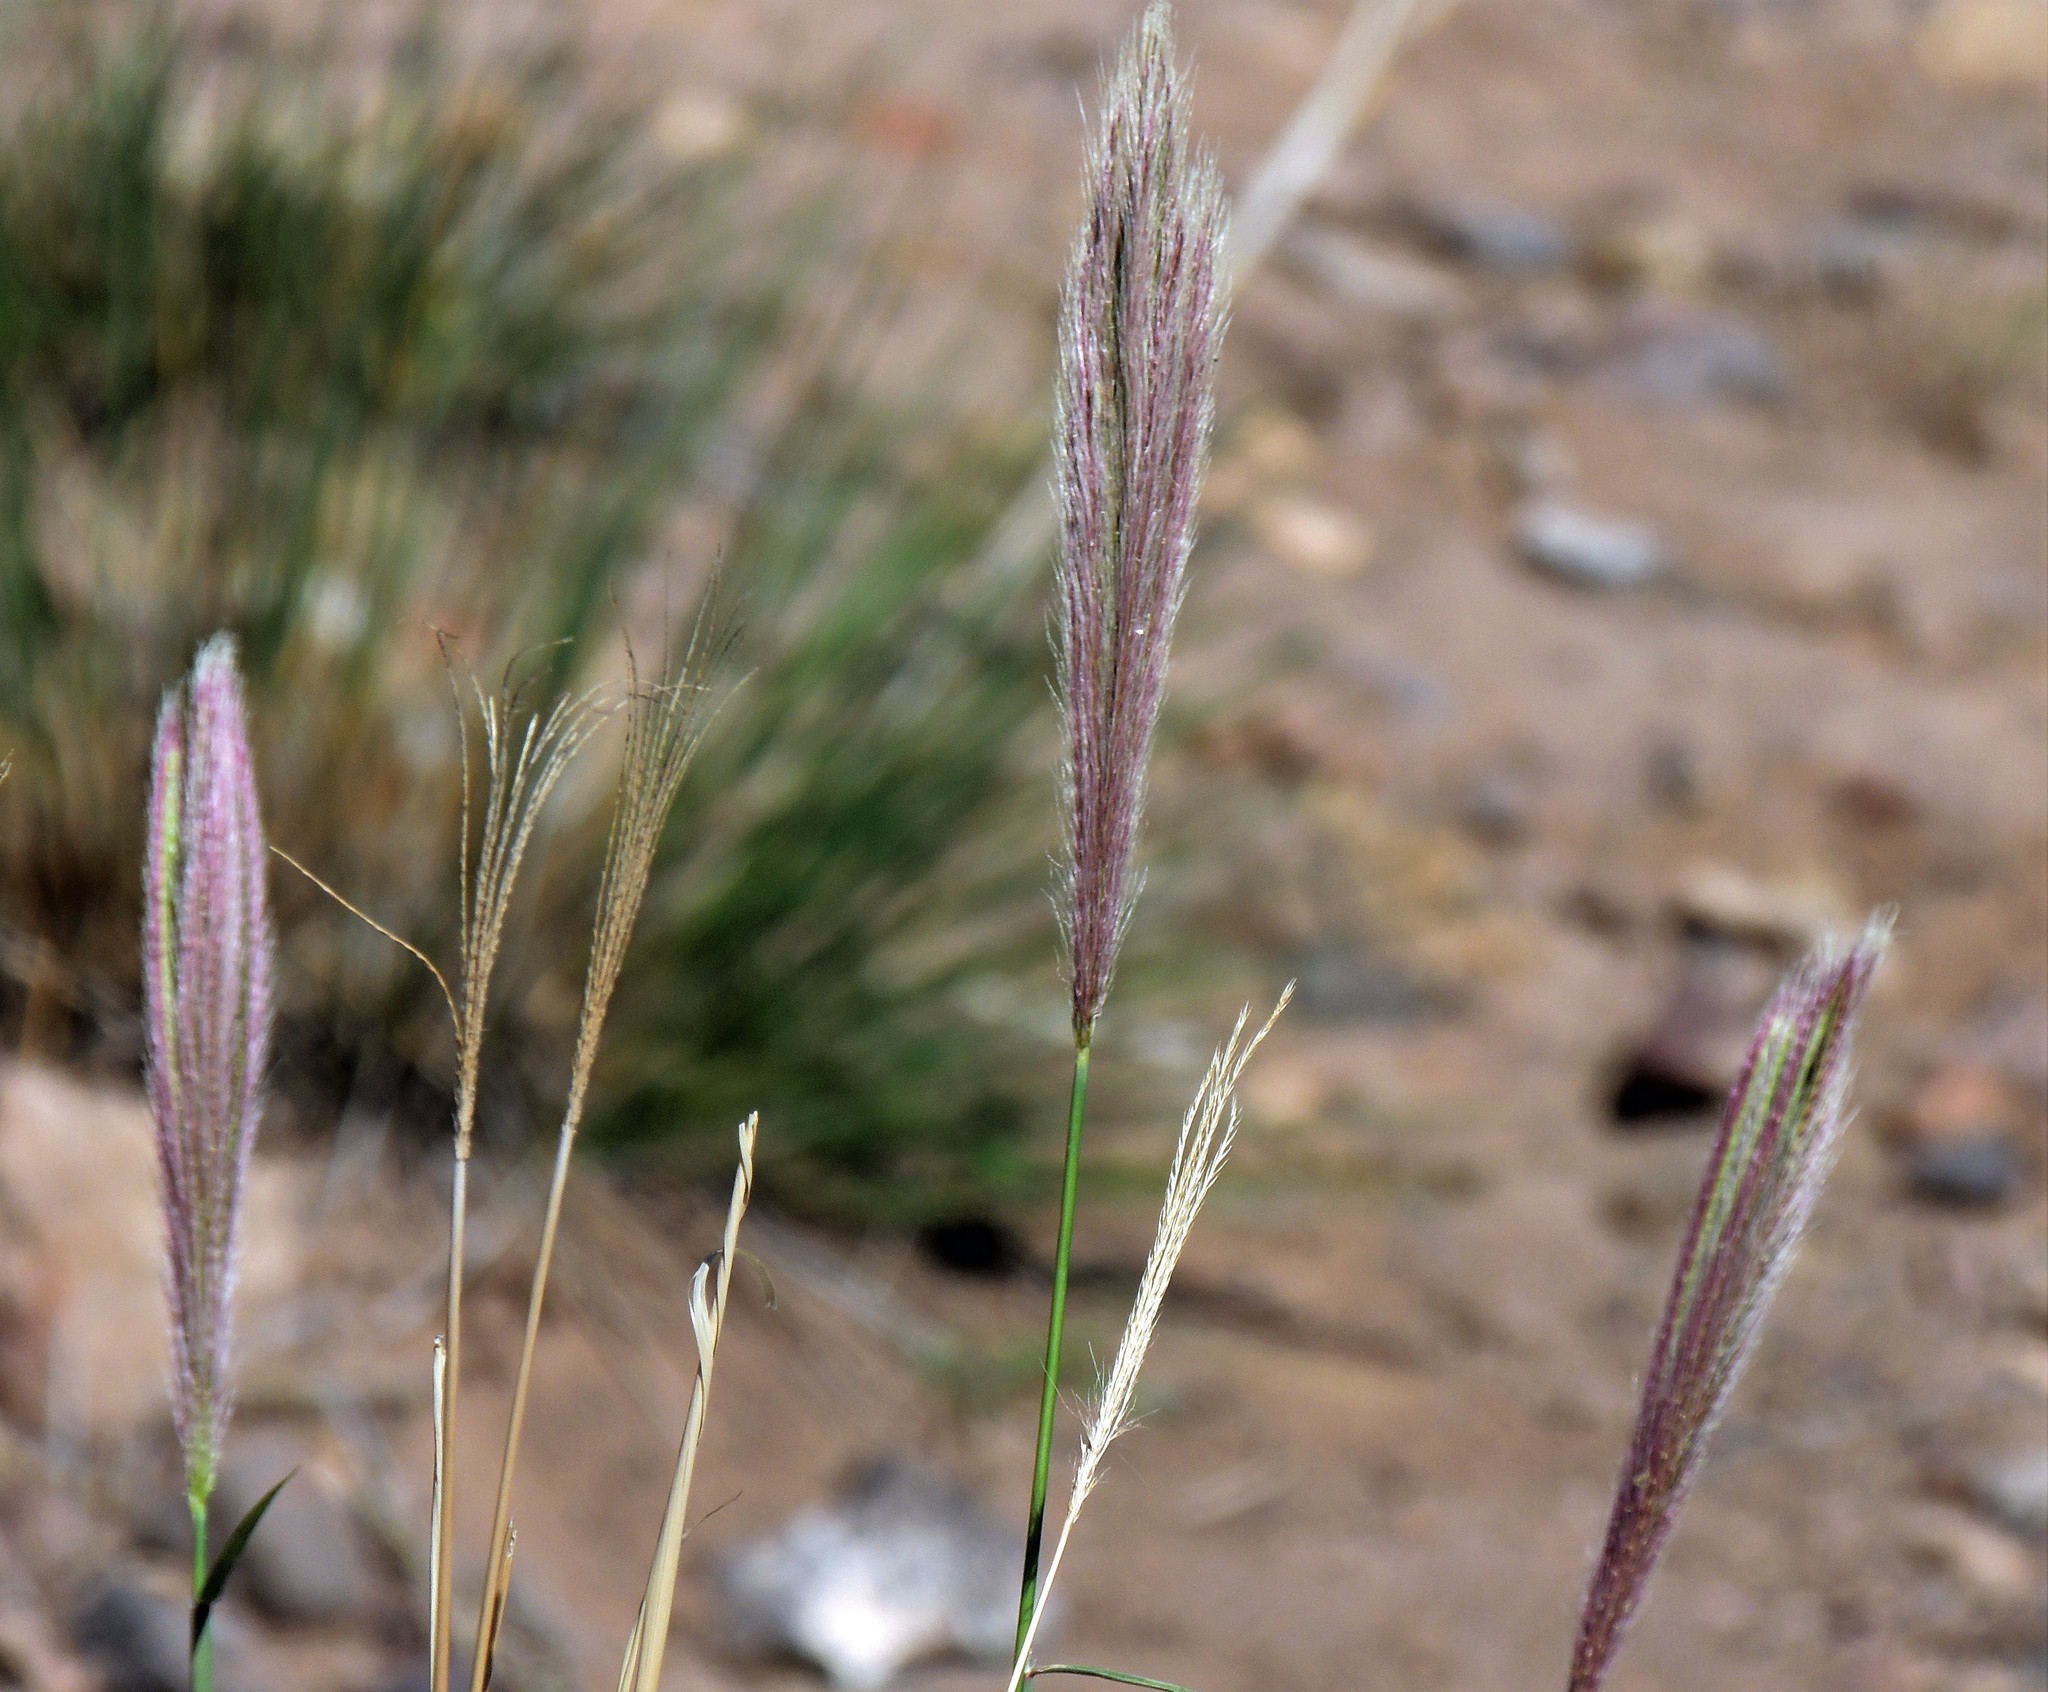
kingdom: Plantae
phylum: Tracheophyta
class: Liliopsida
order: Poales
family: Poaceae
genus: Leptochloa
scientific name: Leptochloa crinita
